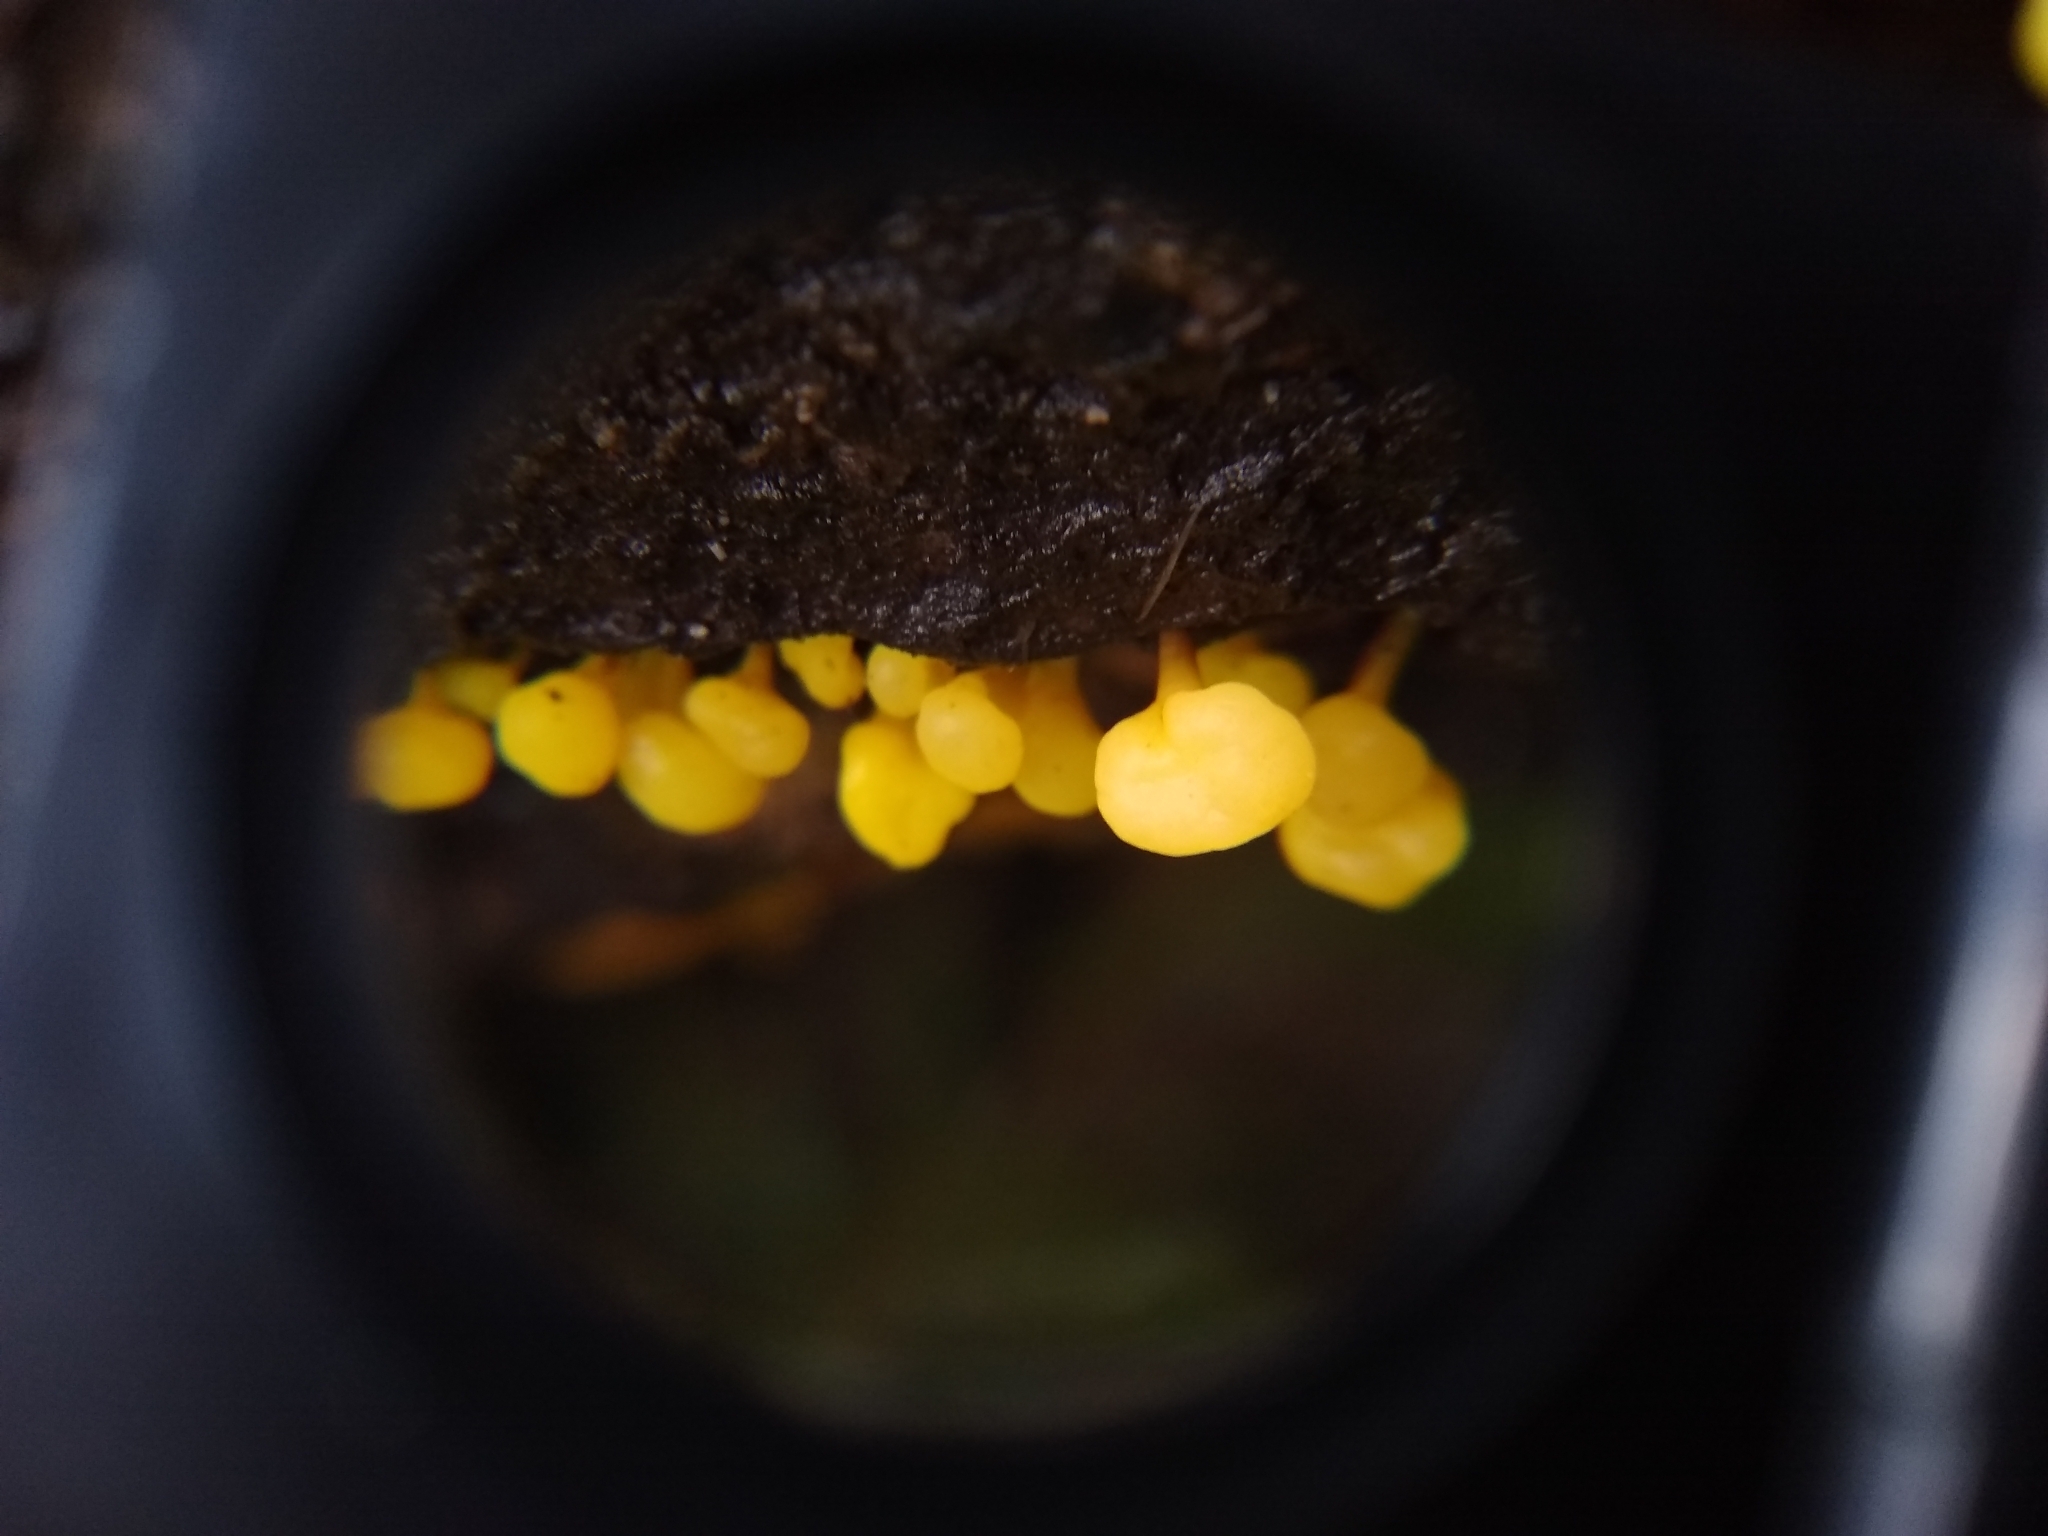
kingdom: Fungi
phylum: Basidiomycota
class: Dacrymycetes
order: Dacrymycetales
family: Dacrymycetaceae
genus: Guepiniopsis
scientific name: Guepiniopsis alpina
